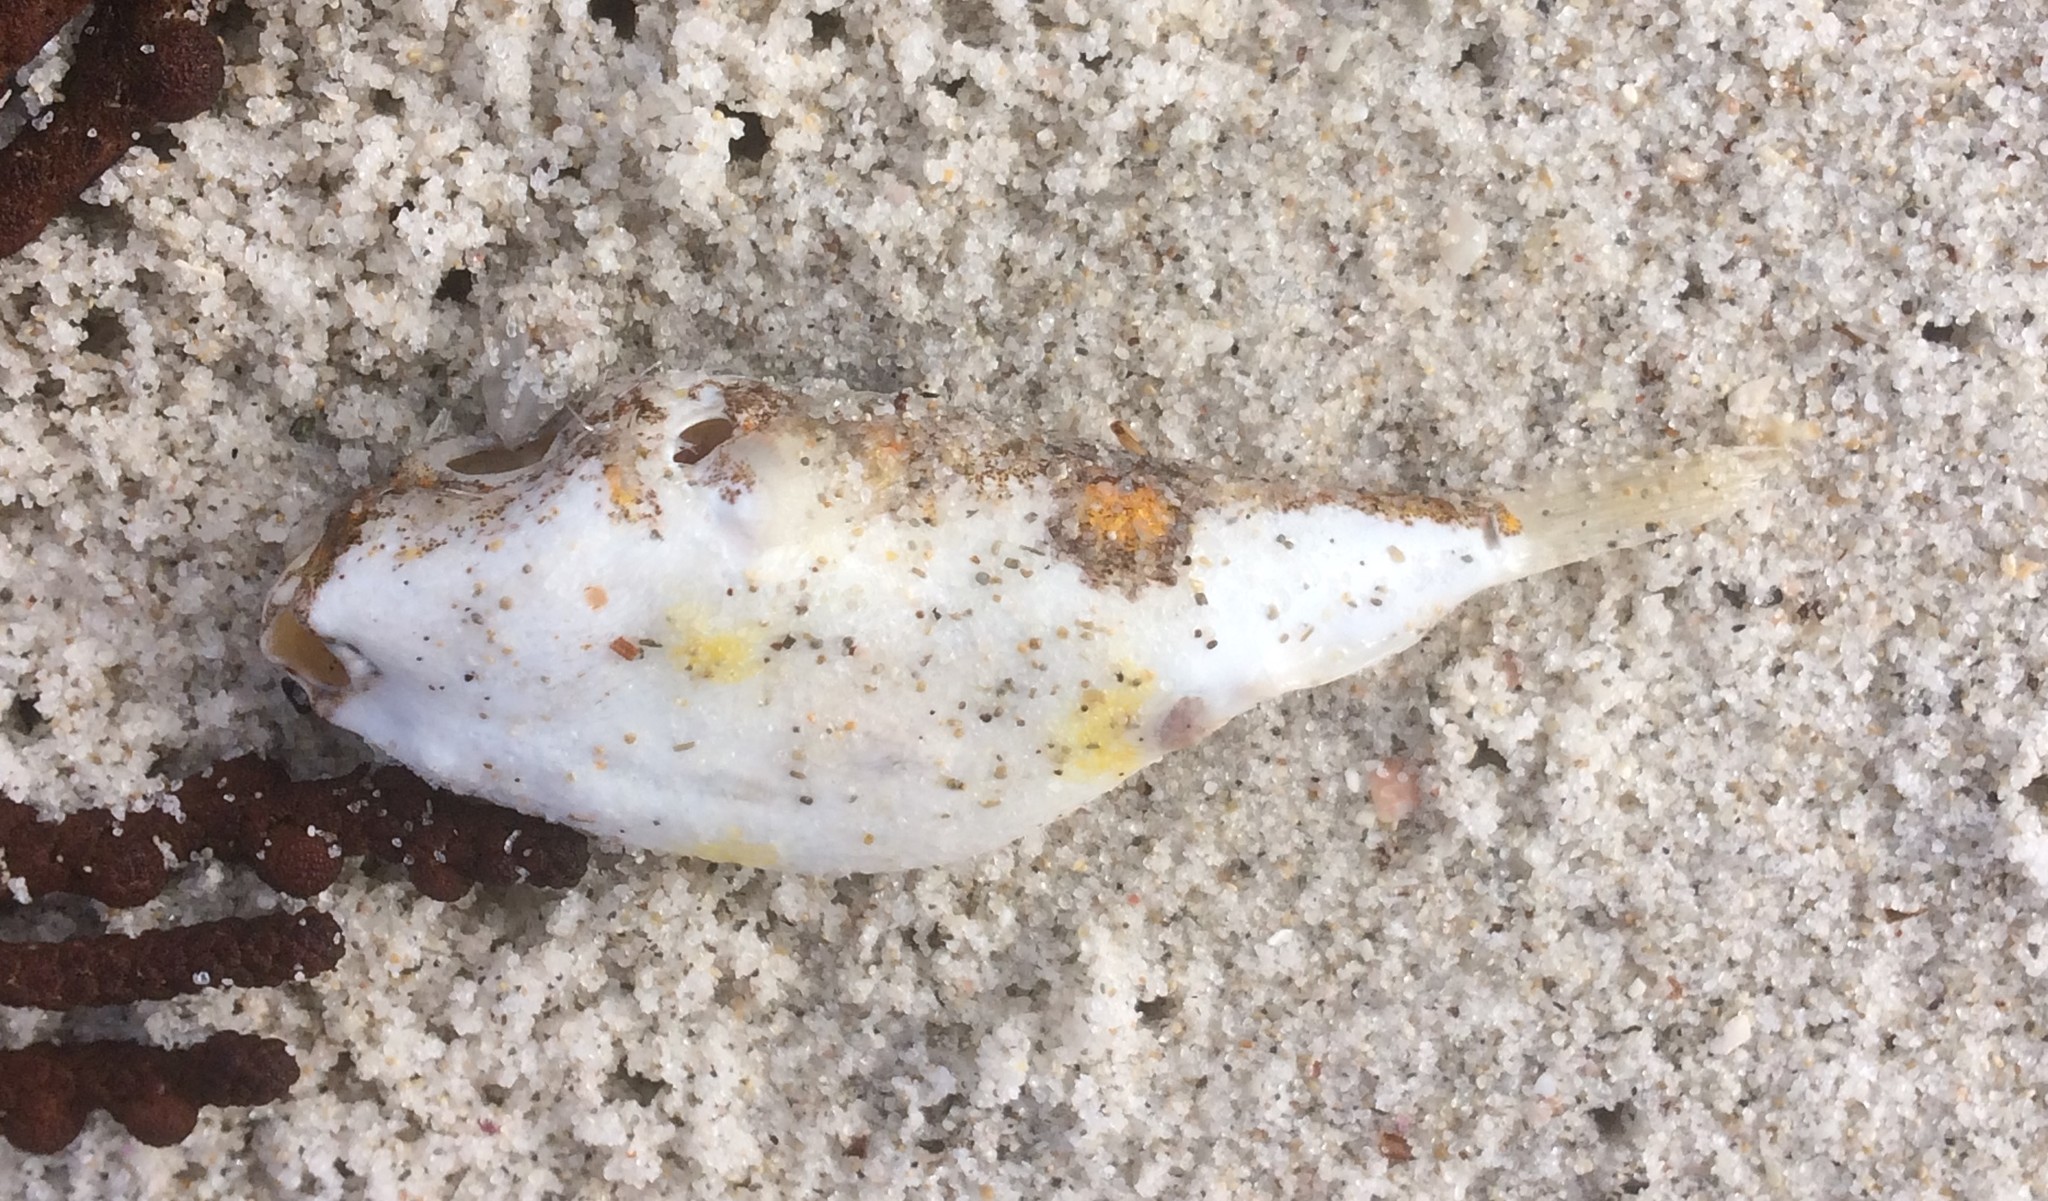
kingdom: Animalia
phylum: Chordata
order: Tetraodontiformes
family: Tetraodontidae
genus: Polyspina
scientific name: Polyspina piosae
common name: Orange-barred pufferfish
